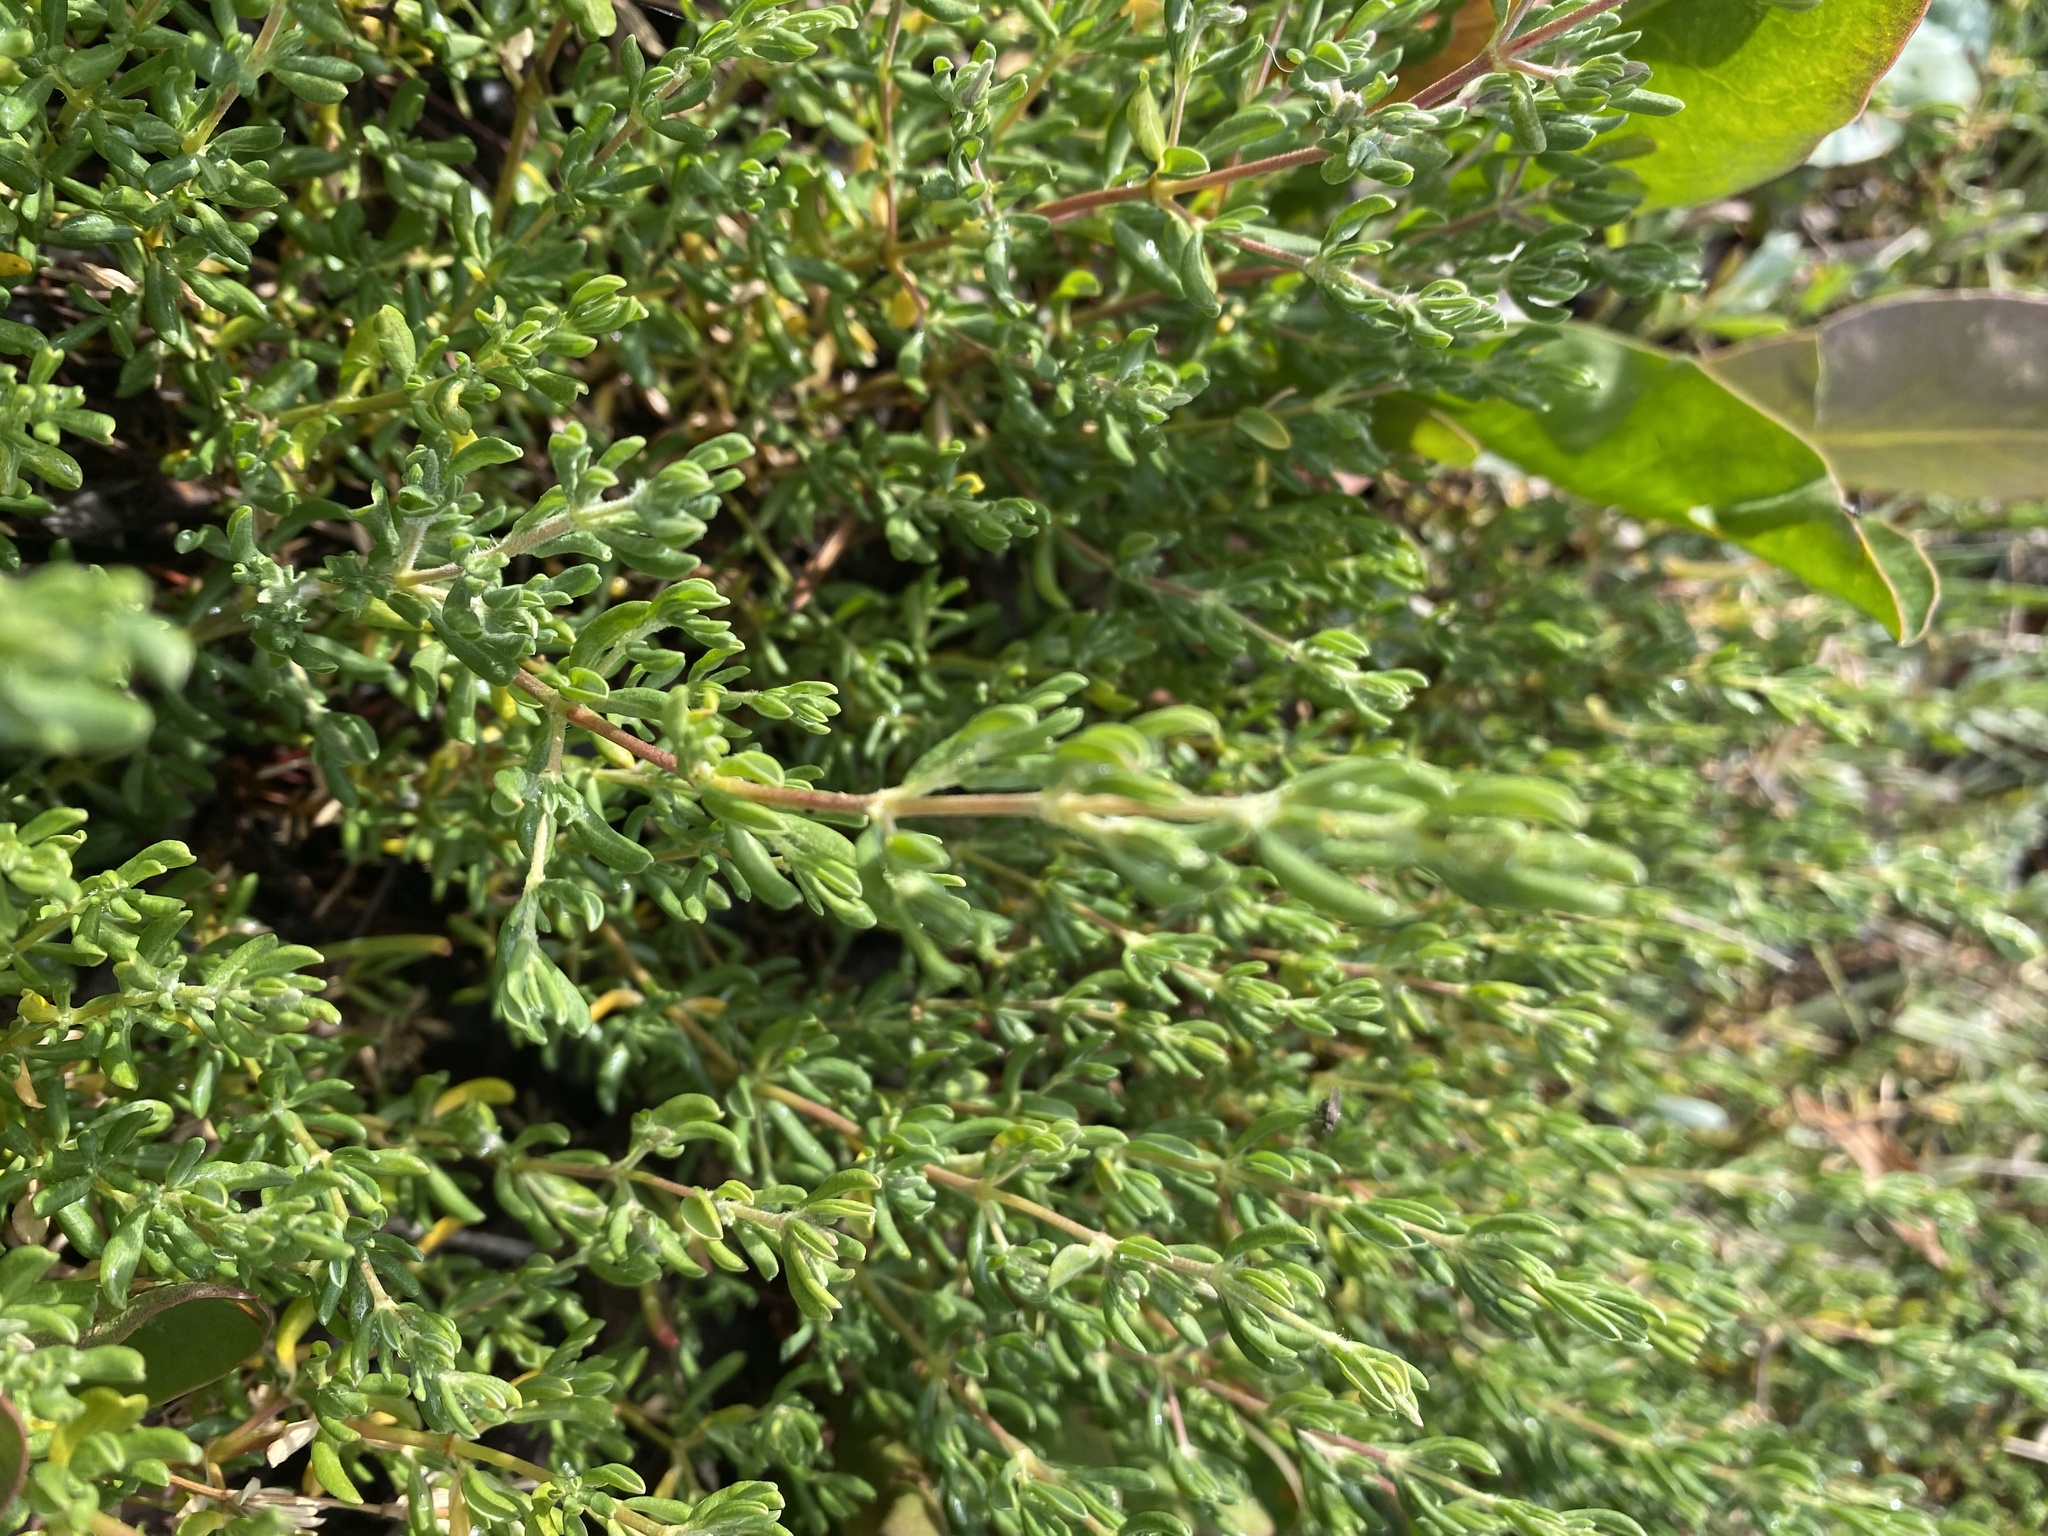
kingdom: Plantae
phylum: Tracheophyta
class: Magnoliopsida
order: Caryophyllales
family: Frankeniaceae
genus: Frankenia
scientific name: Frankenia salina
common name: Alkali seaheath
